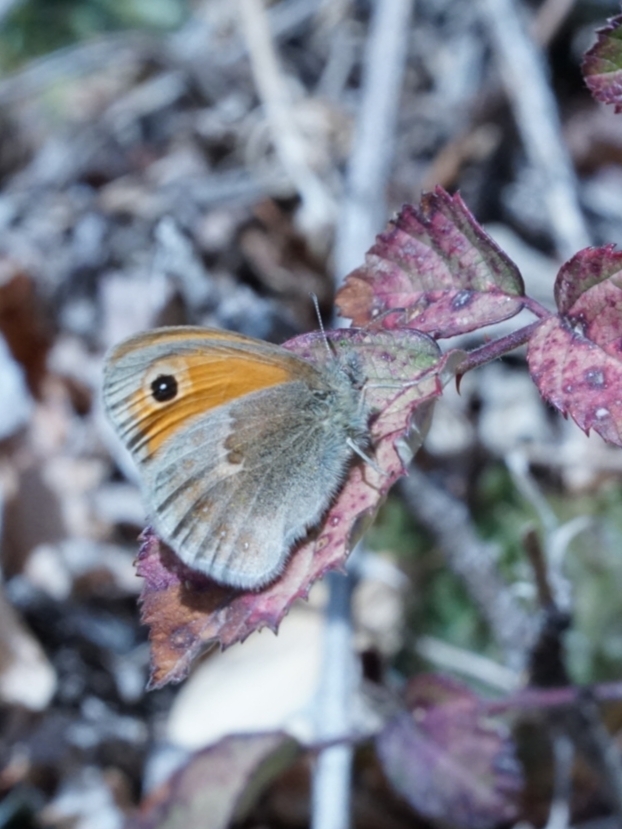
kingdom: Animalia
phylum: Arthropoda
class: Insecta
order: Lepidoptera
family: Nymphalidae
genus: Coenonympha
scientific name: Coenonympha pamphilus
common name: Small heath
